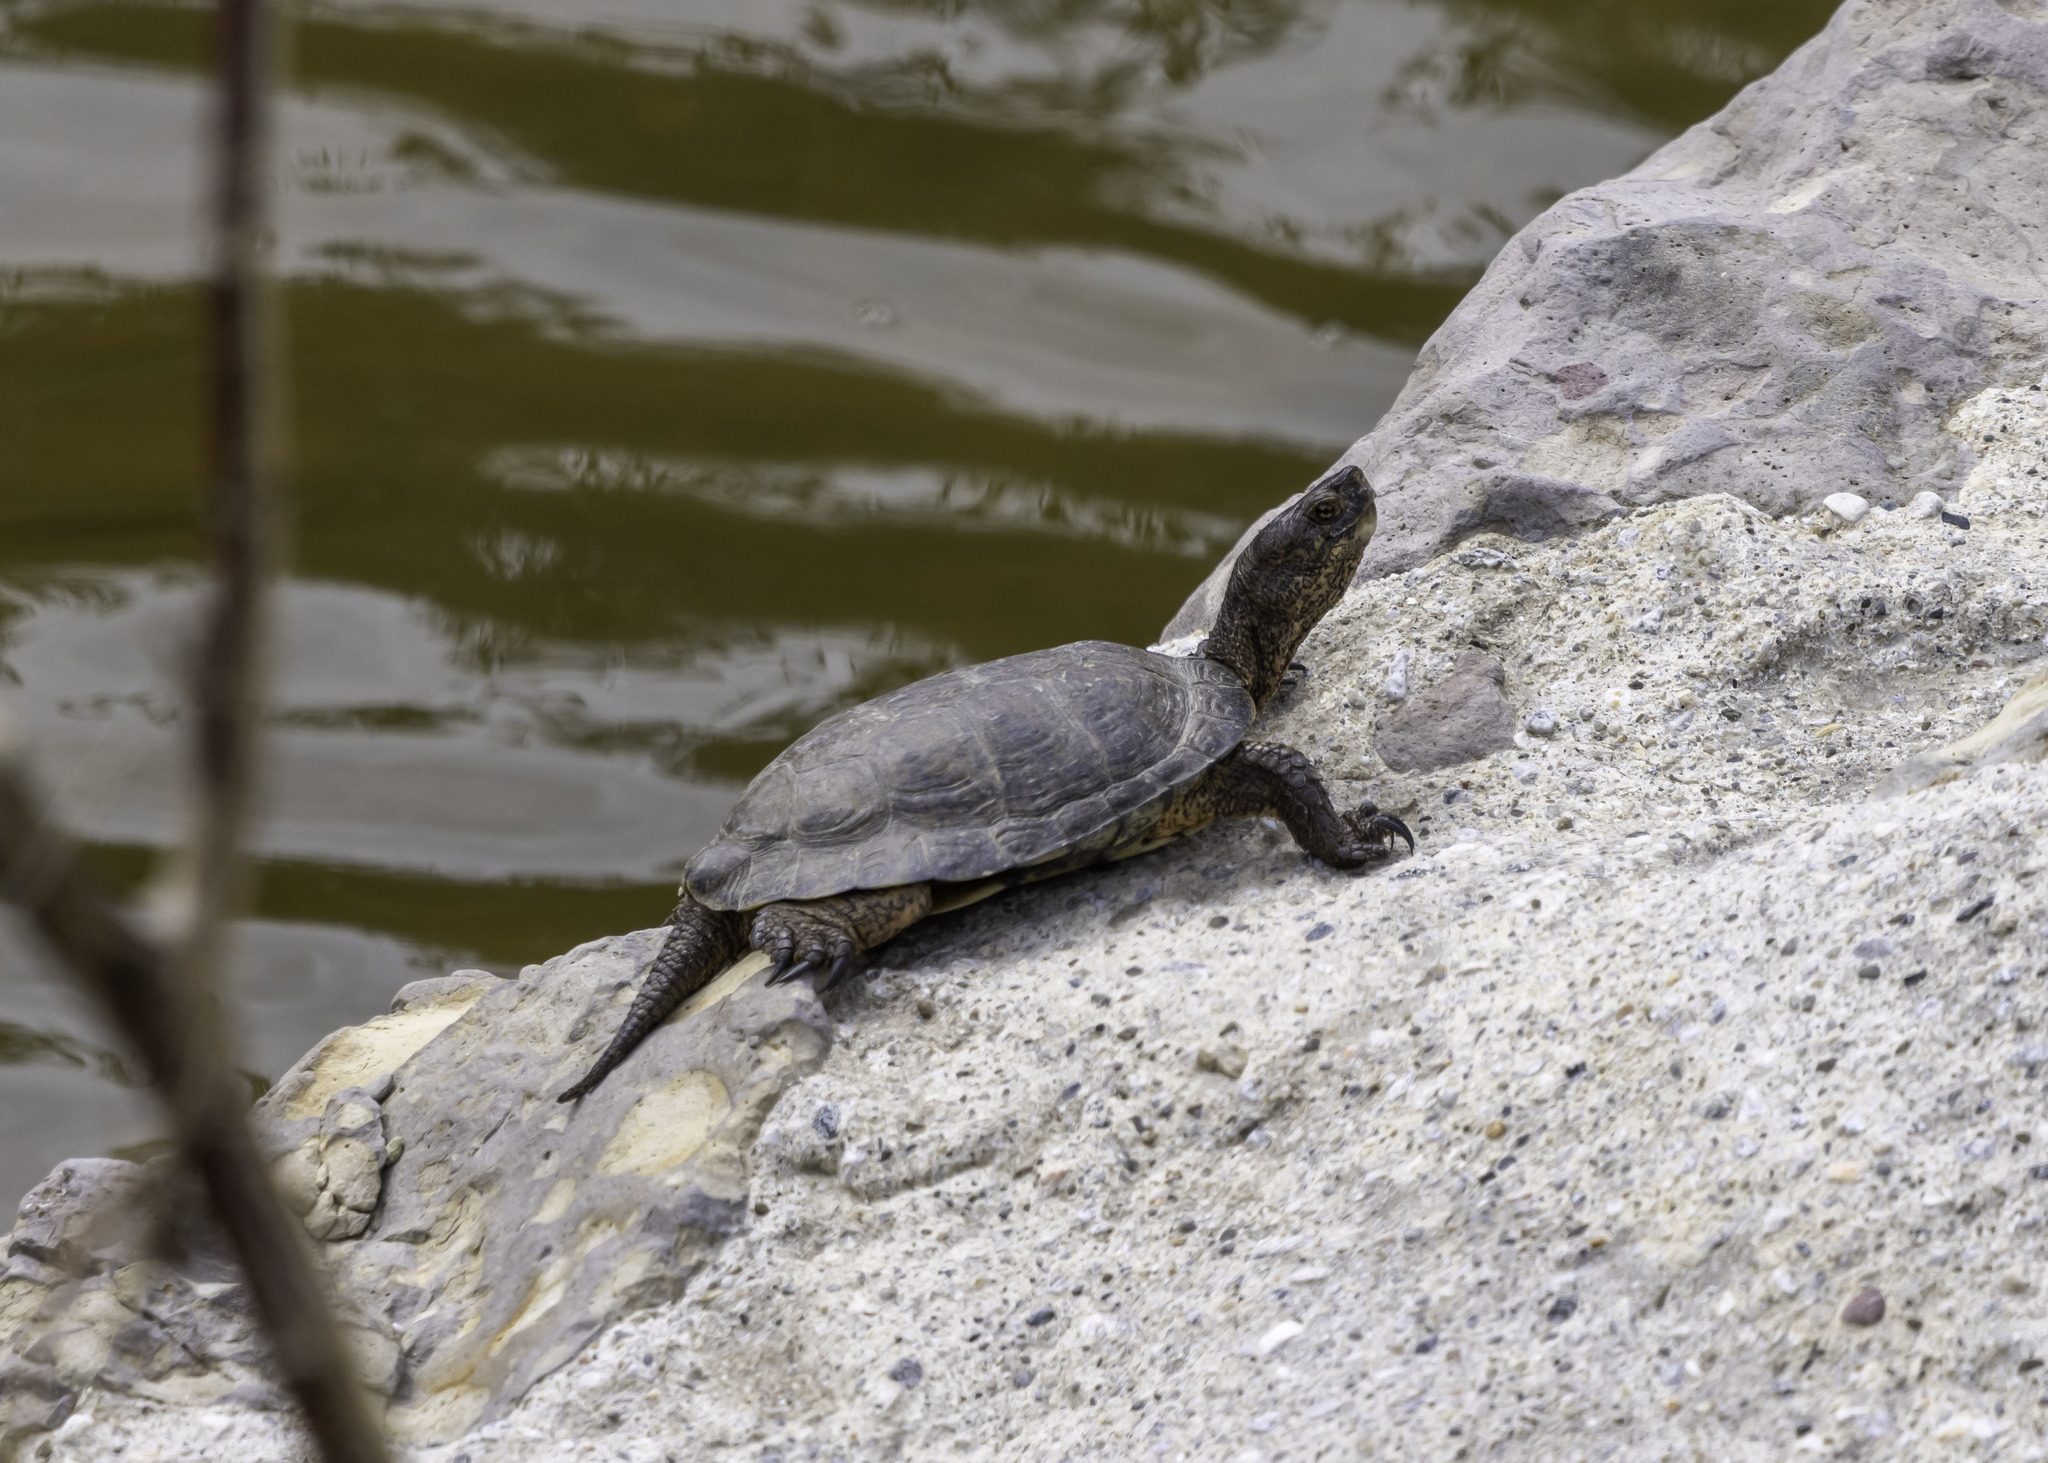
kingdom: Animalia
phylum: Chordata
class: Testudines
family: Emydidae
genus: Actinemys
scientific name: Actinemys pallida
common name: Southern pacific pond turtle
